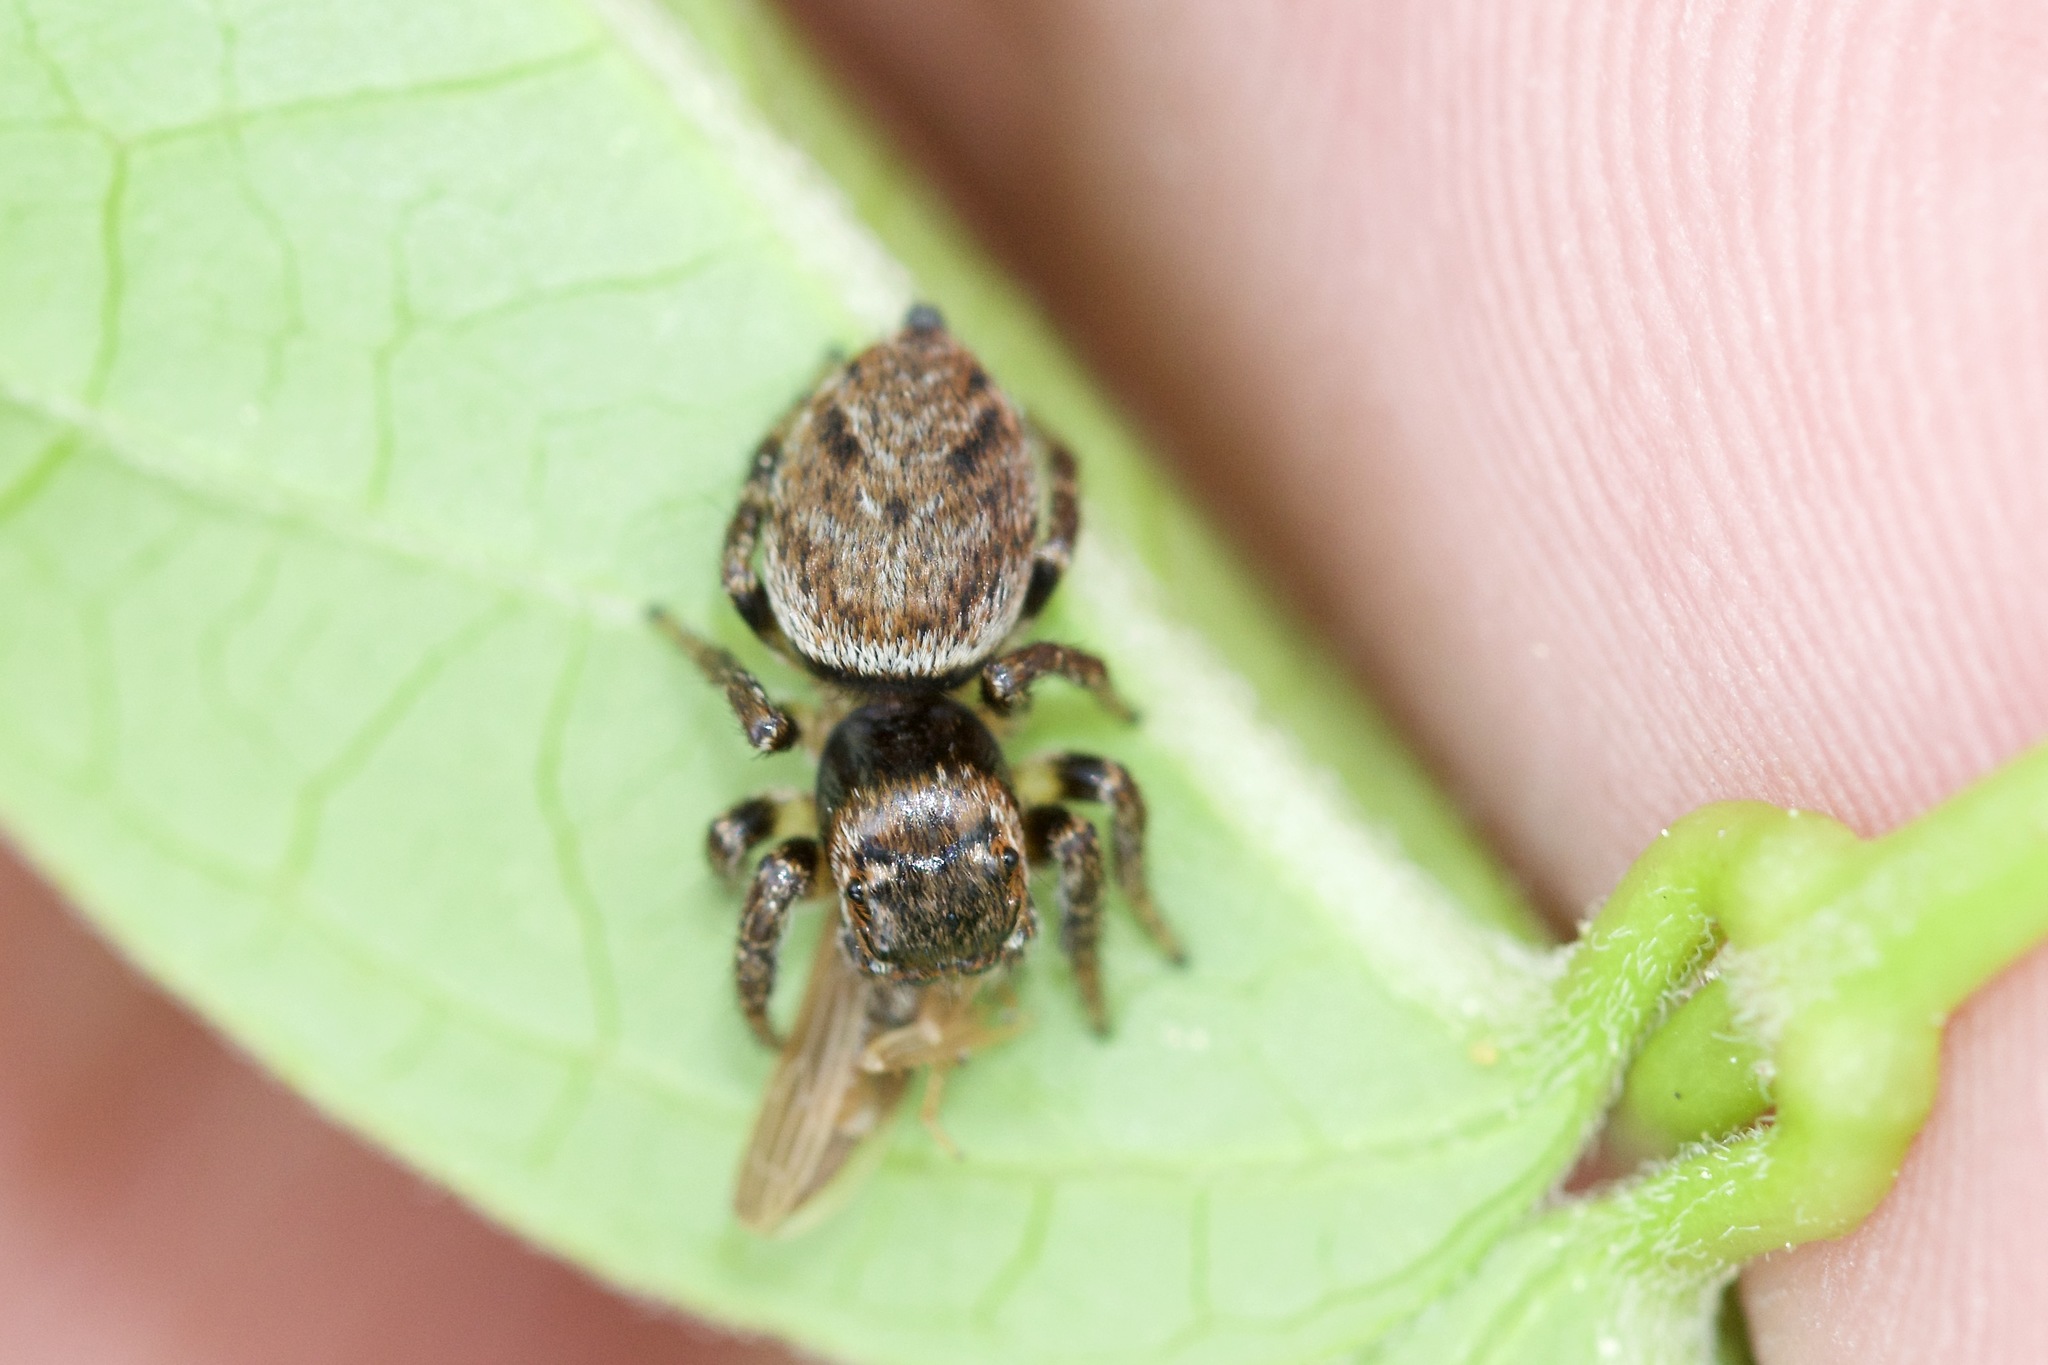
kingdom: Animalia
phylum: Arthropoda
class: Arachnida
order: Araneae
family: Salticidae
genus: Evarcha
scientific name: Evarcha hoyi
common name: Hoy's jumping spider
